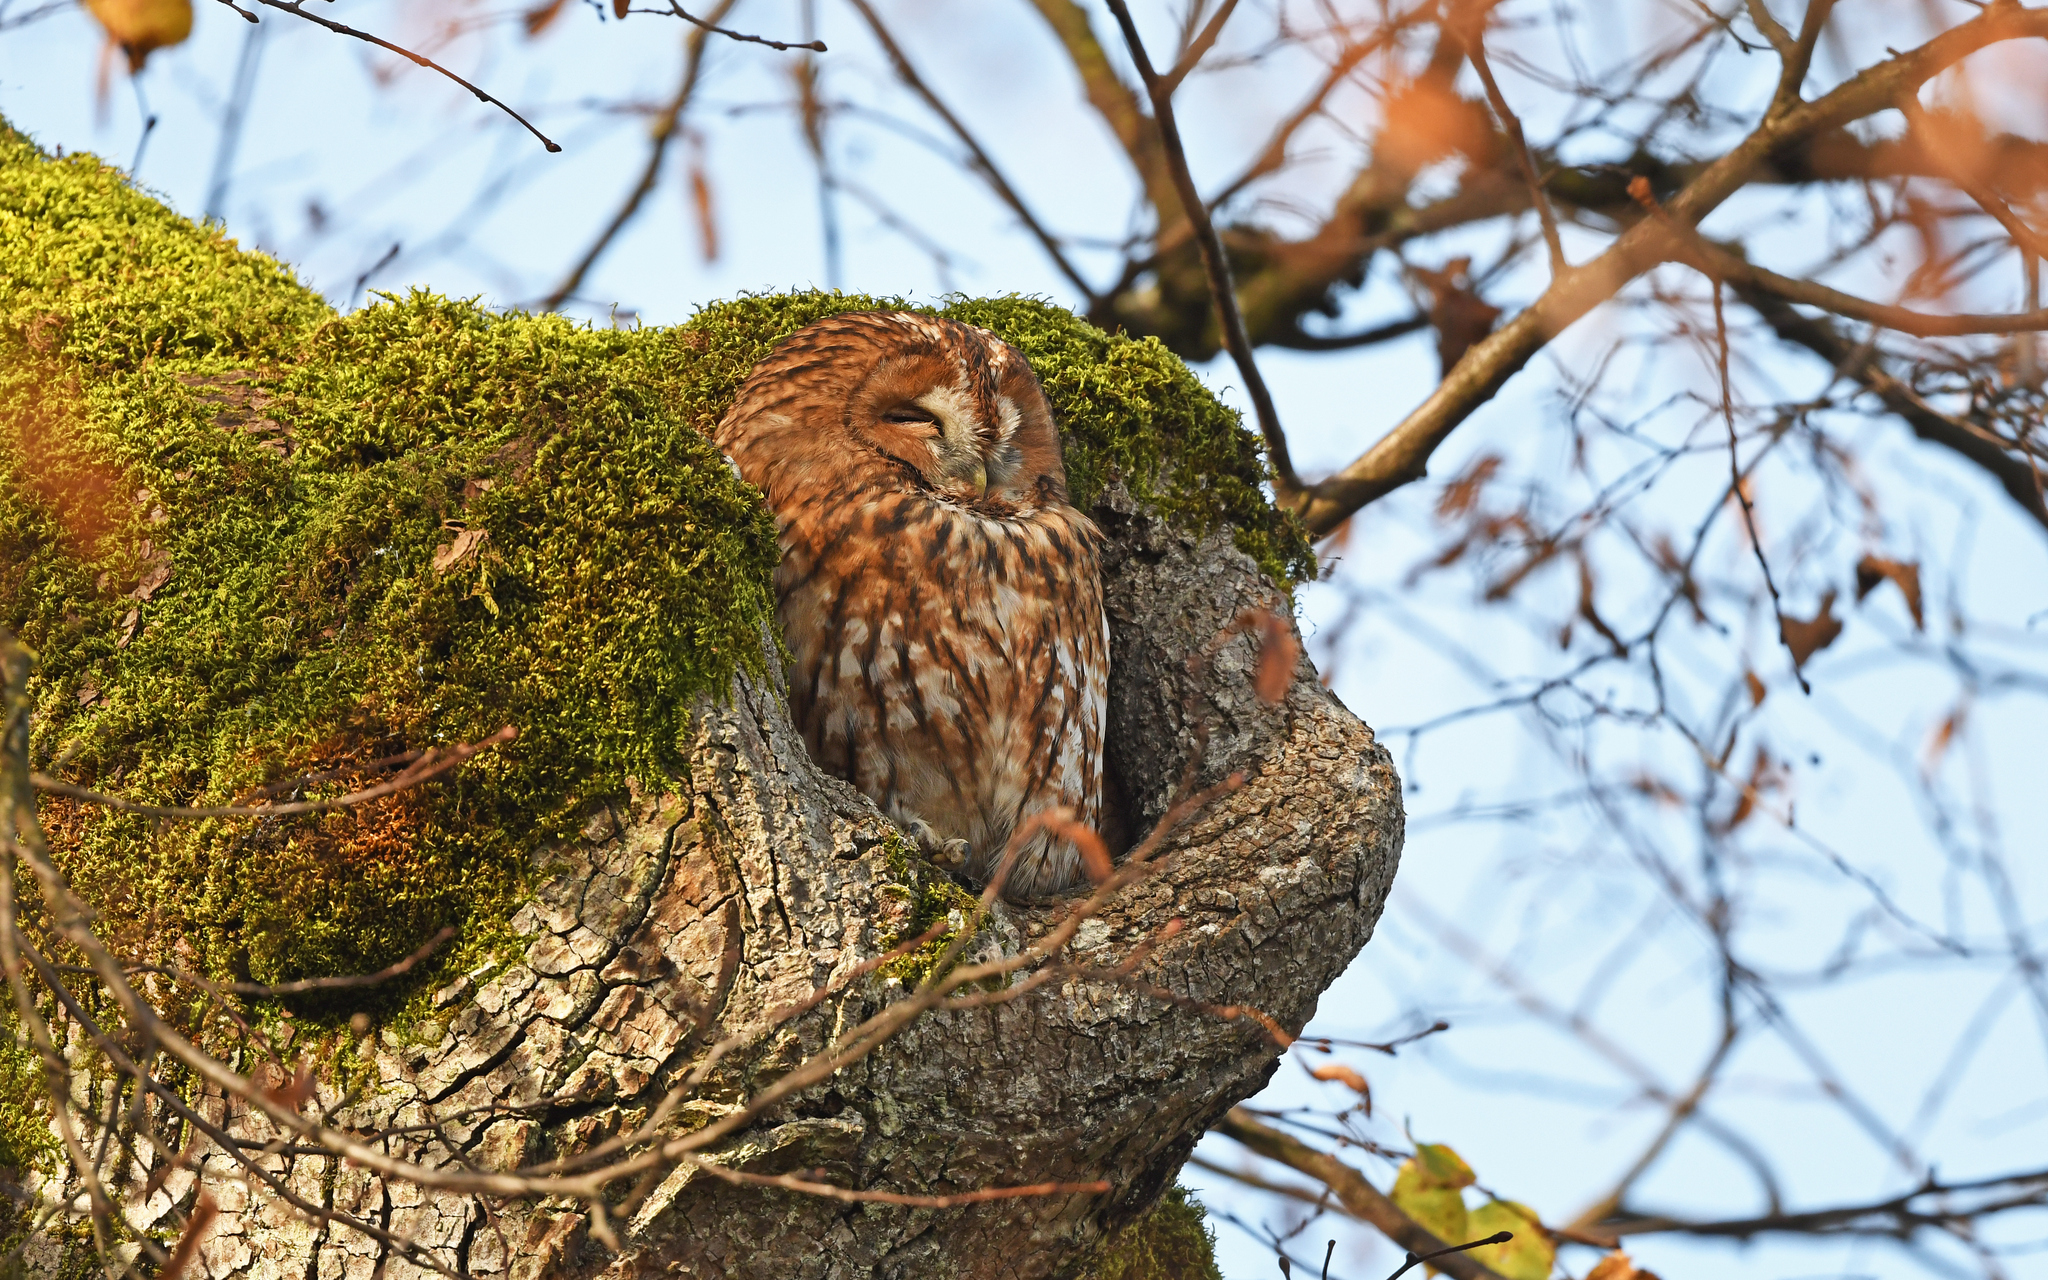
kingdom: Animalia
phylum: Chordata
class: Aves
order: Strigiformes
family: Strigidae
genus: Strix
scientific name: Strix aluco
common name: Tawny owl
